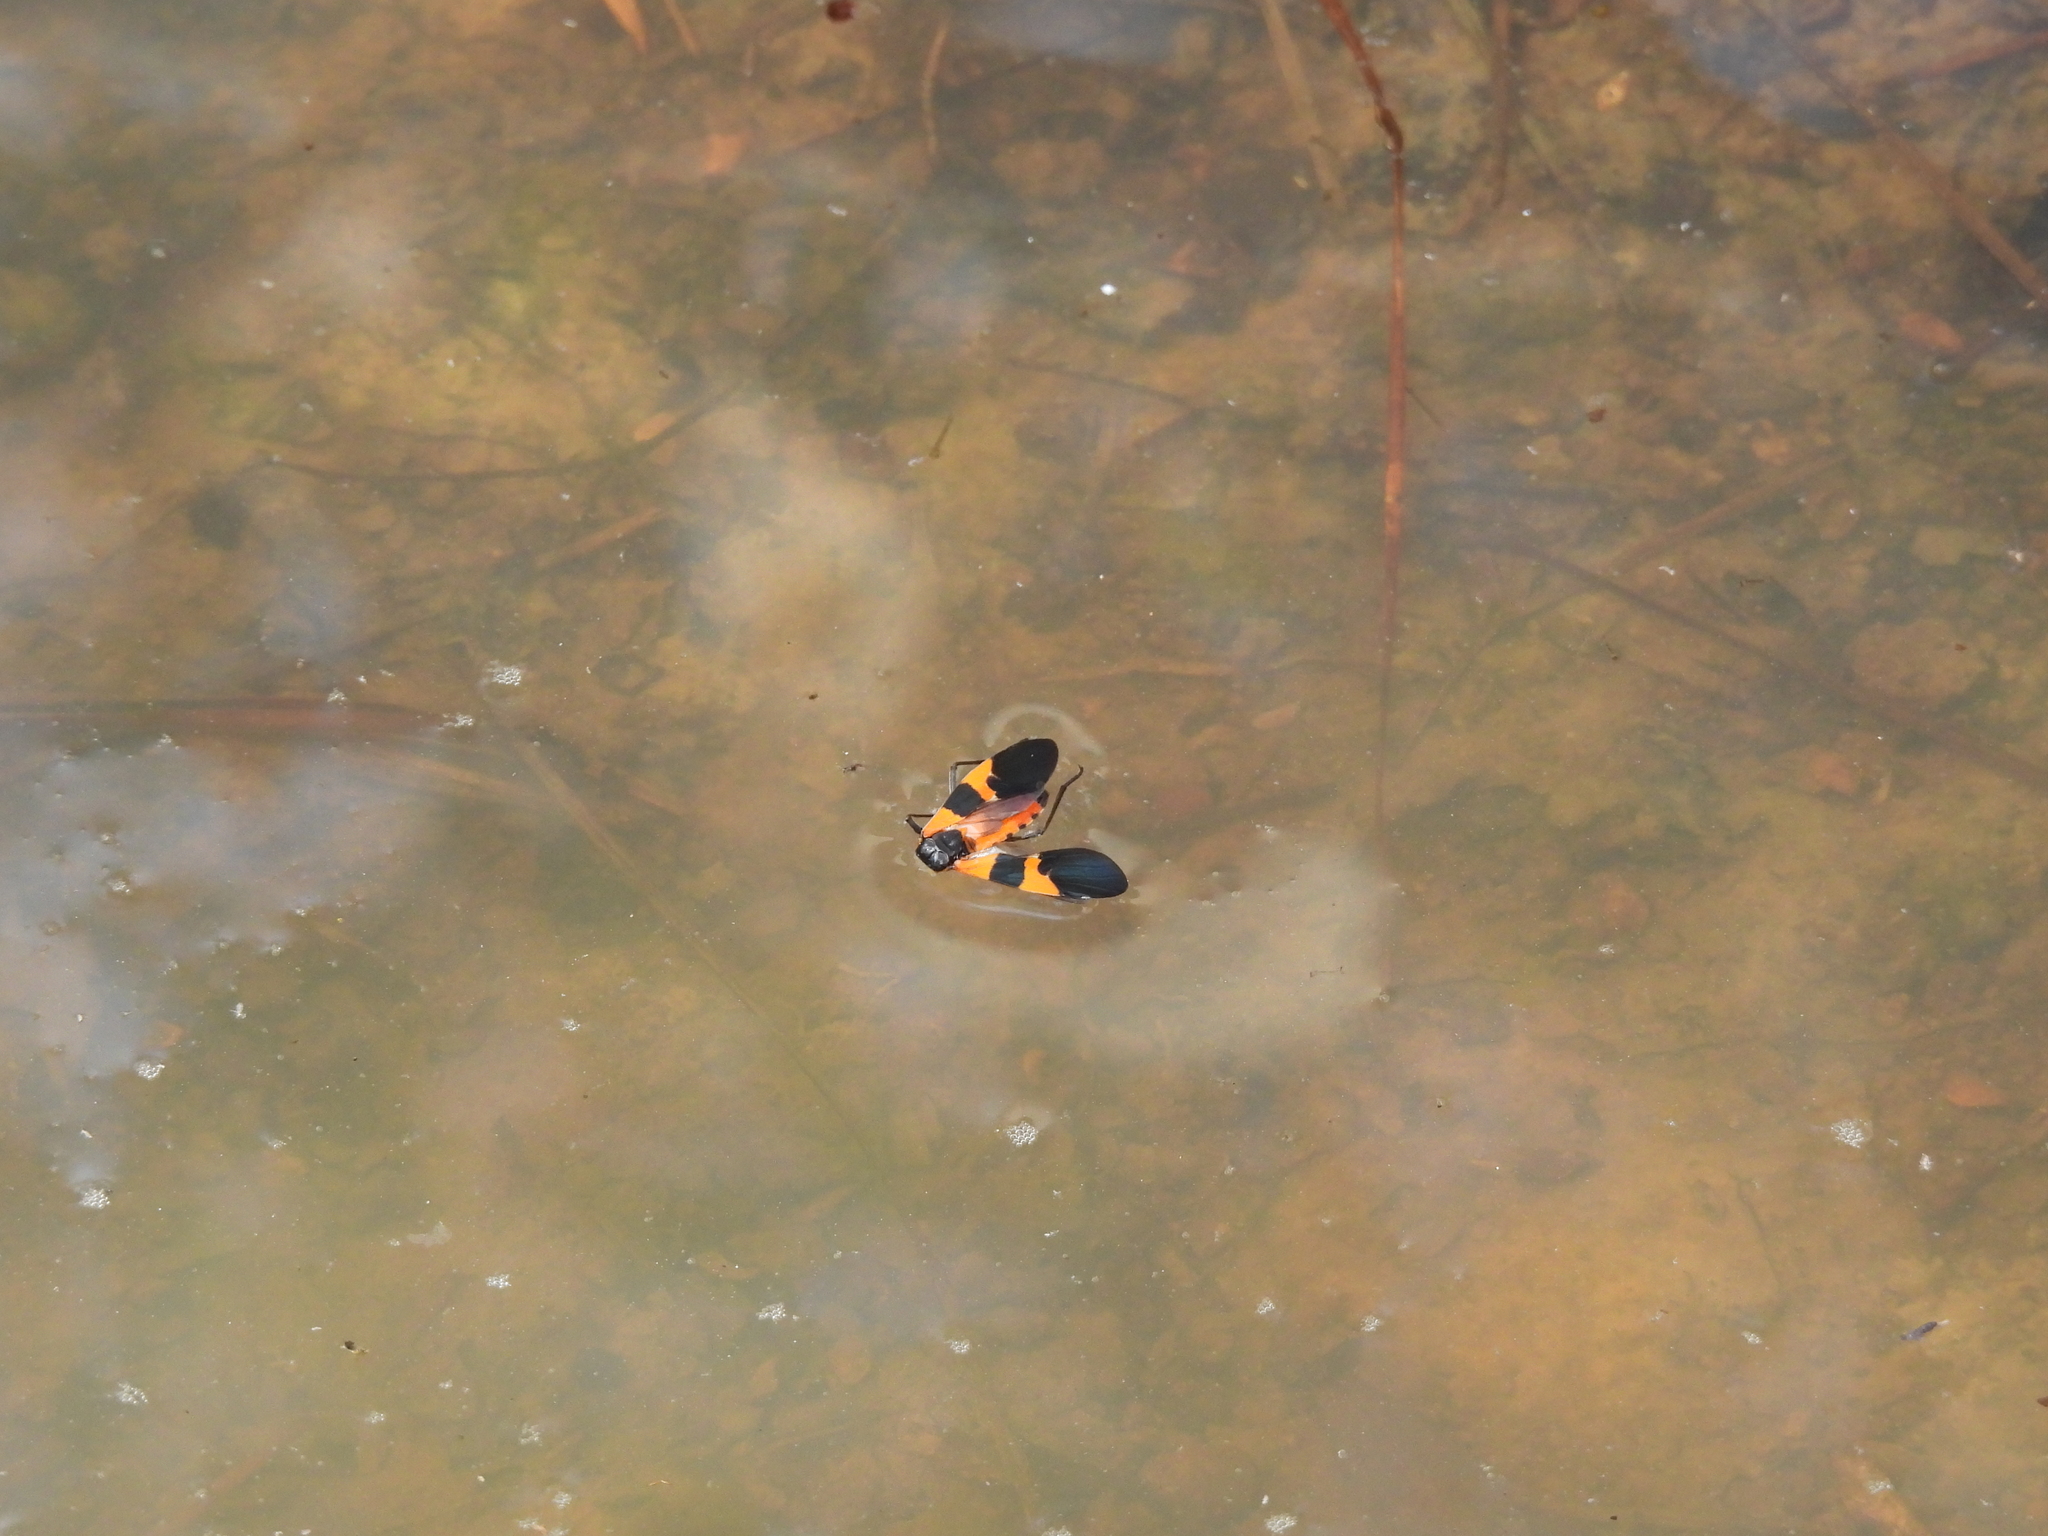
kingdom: Animalia
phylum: Arthropoda
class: Insecta
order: Hemiptera
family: Lygaeidae
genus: Oncopeltus
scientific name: Oncopeltus fasciatus
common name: Large milkweed bug
